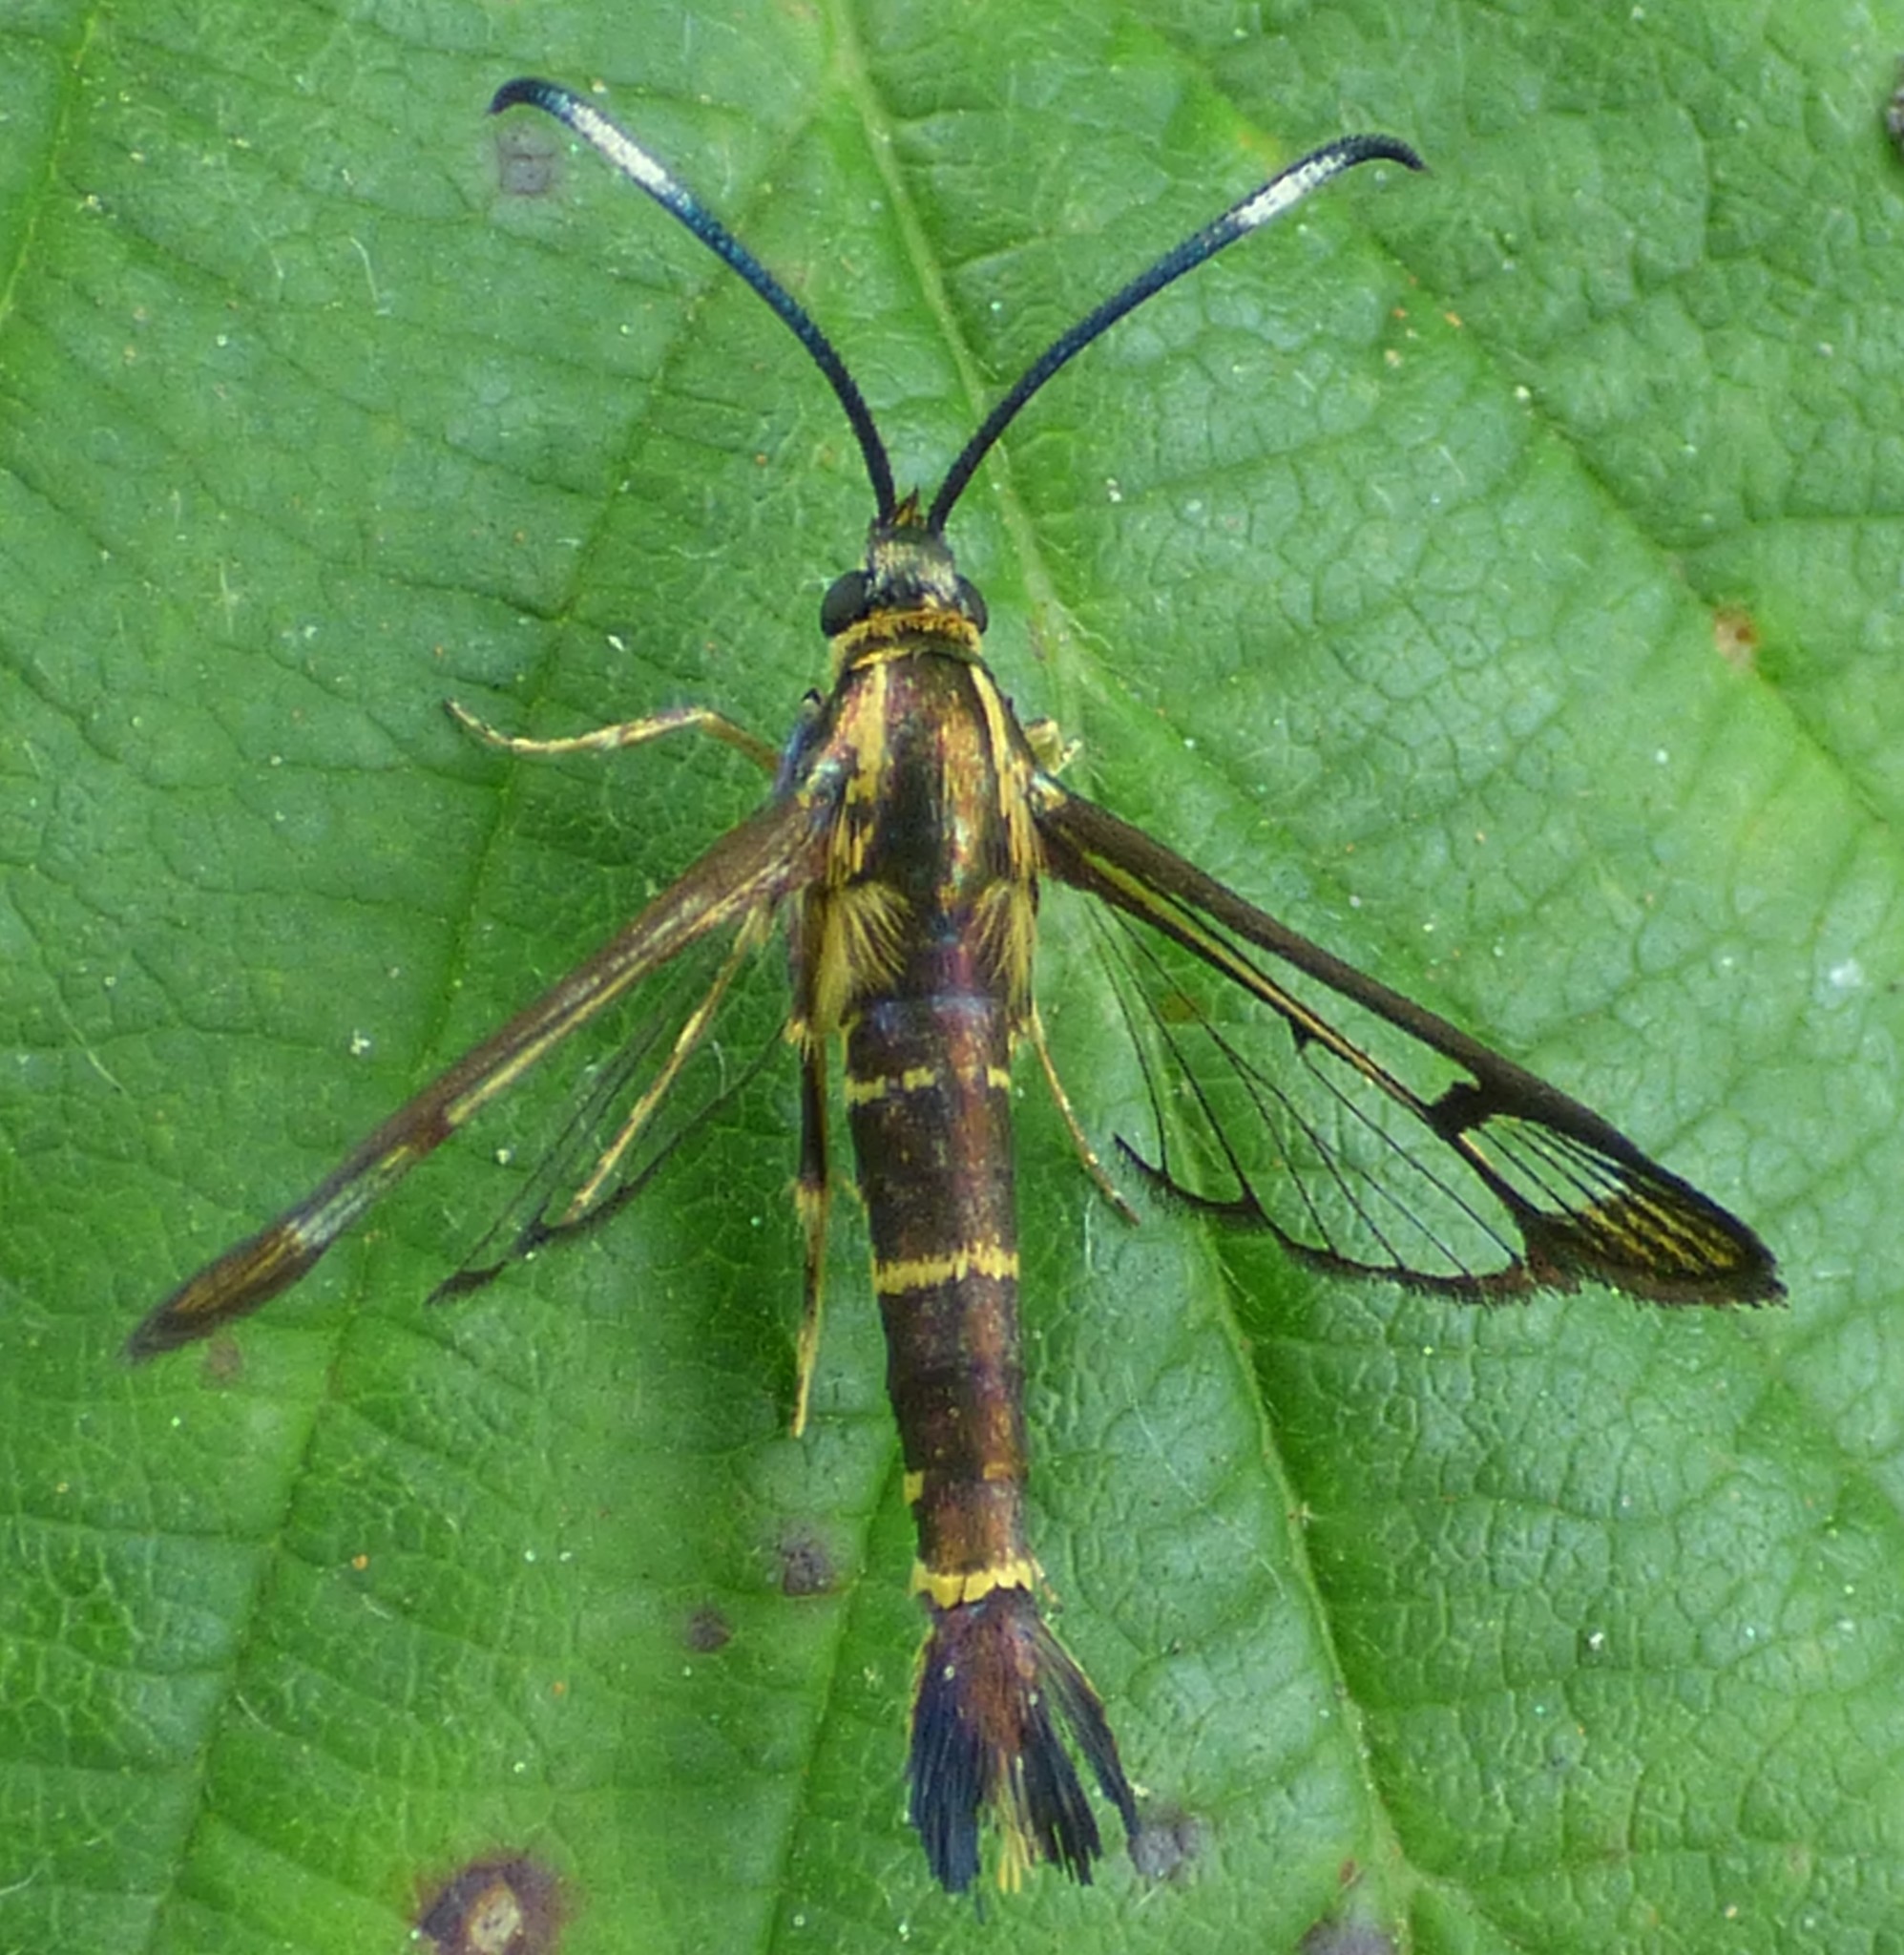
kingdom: Animalia
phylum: Arthropoda
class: Insecta
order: Lepidoptera
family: Sesiidae
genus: Carmenta
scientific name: Carmenta bassiformis
